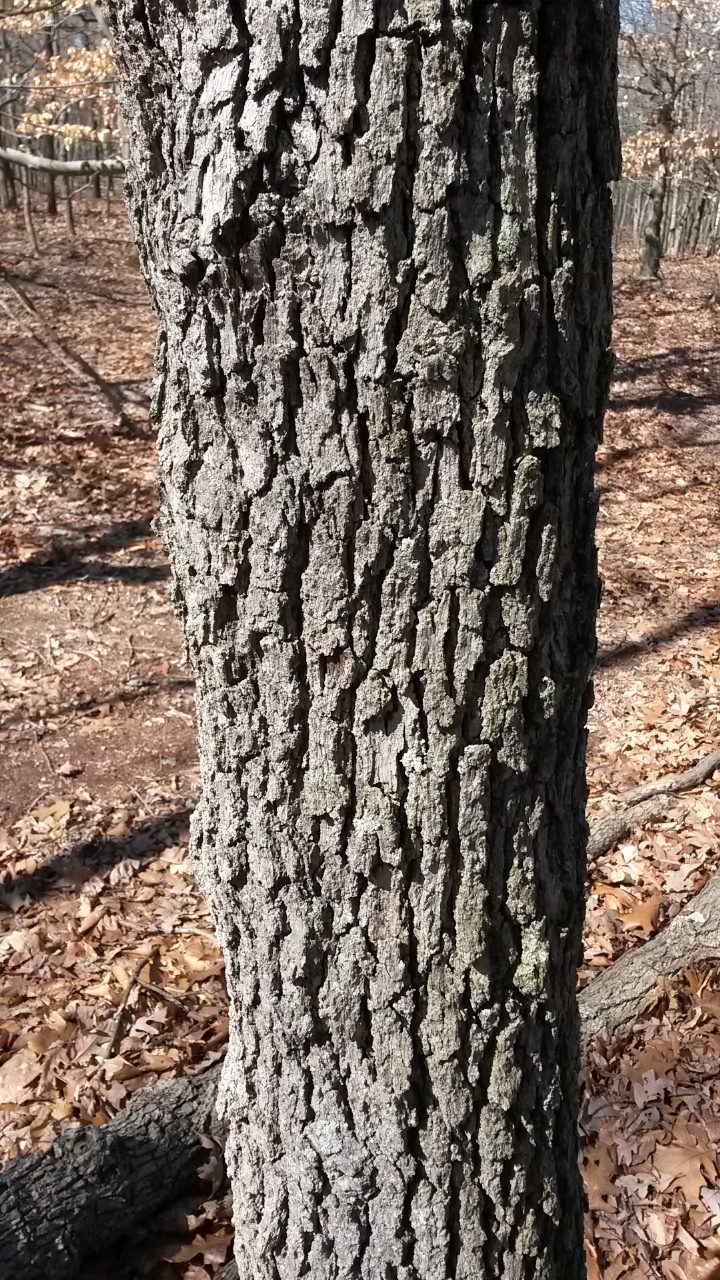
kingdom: Plantae
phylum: Tracheophyta
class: Magnoliopsida
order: Fagales
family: Fagaceae
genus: Quercus
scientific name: Quercus stellata
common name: Post oak
